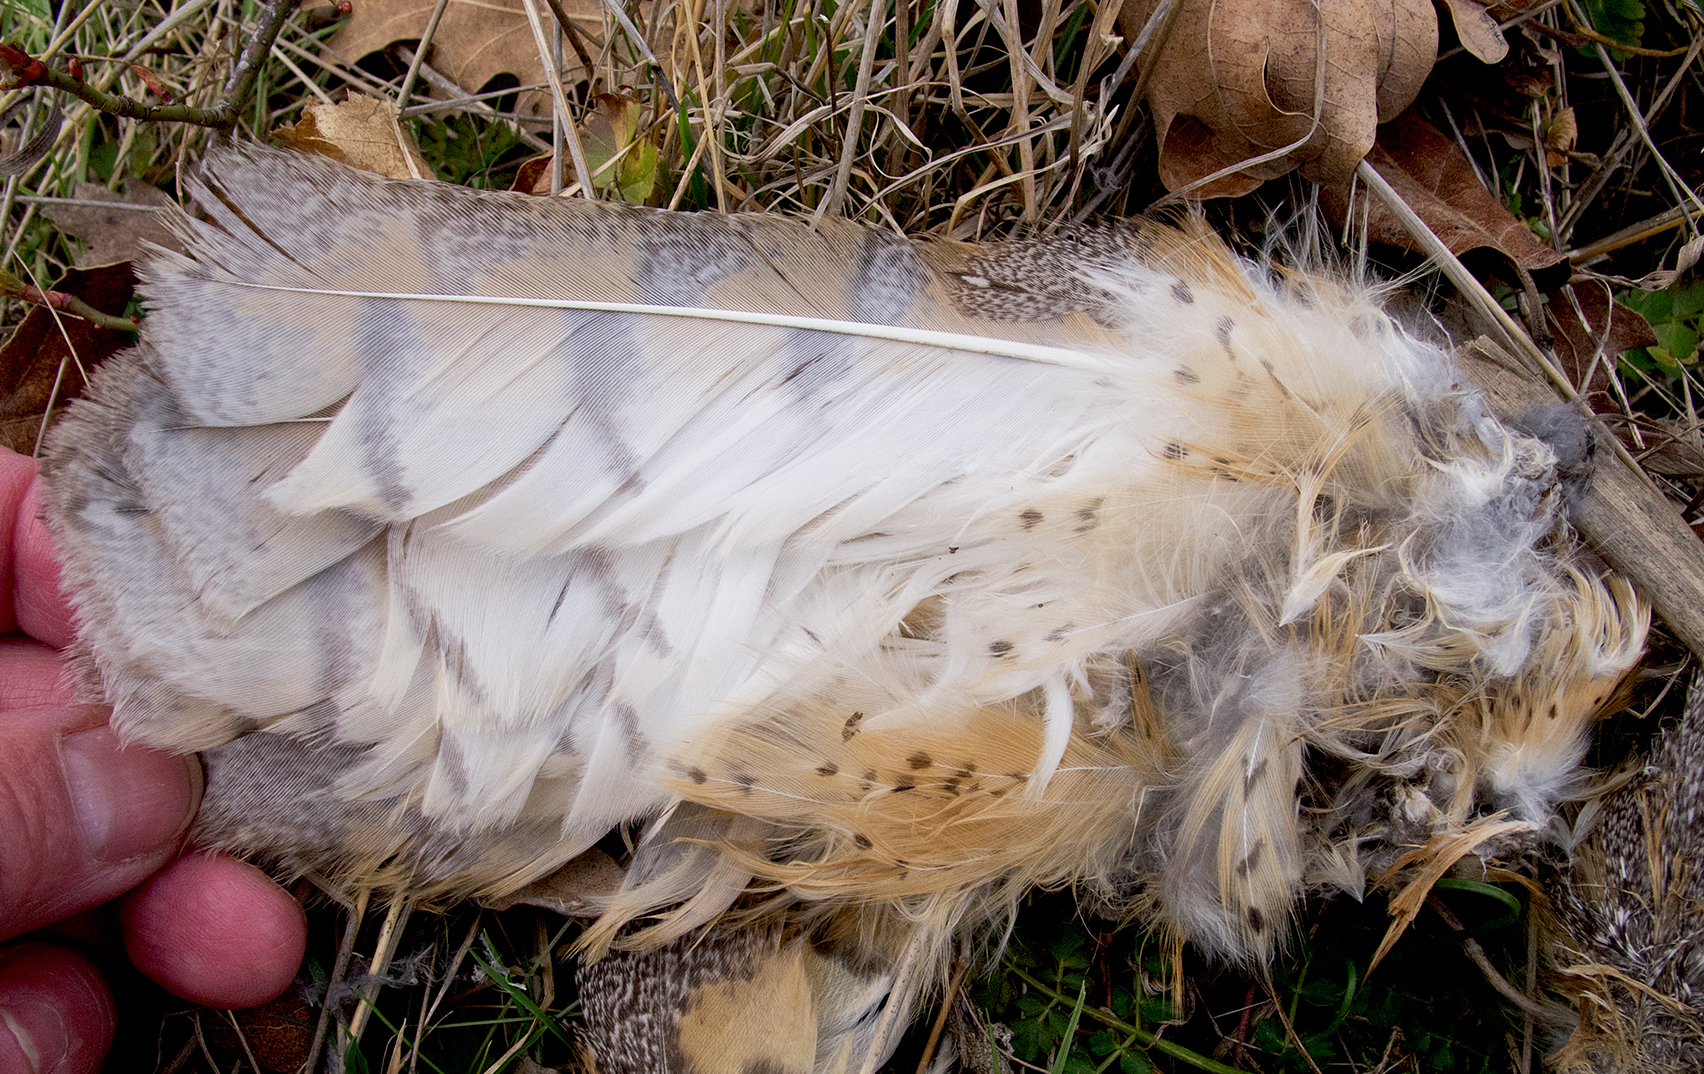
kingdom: Animalia
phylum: Chordata
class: Aves
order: Strigiformes
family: Tytonidae
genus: Tyto
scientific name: Tyto alba
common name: Barn owl
